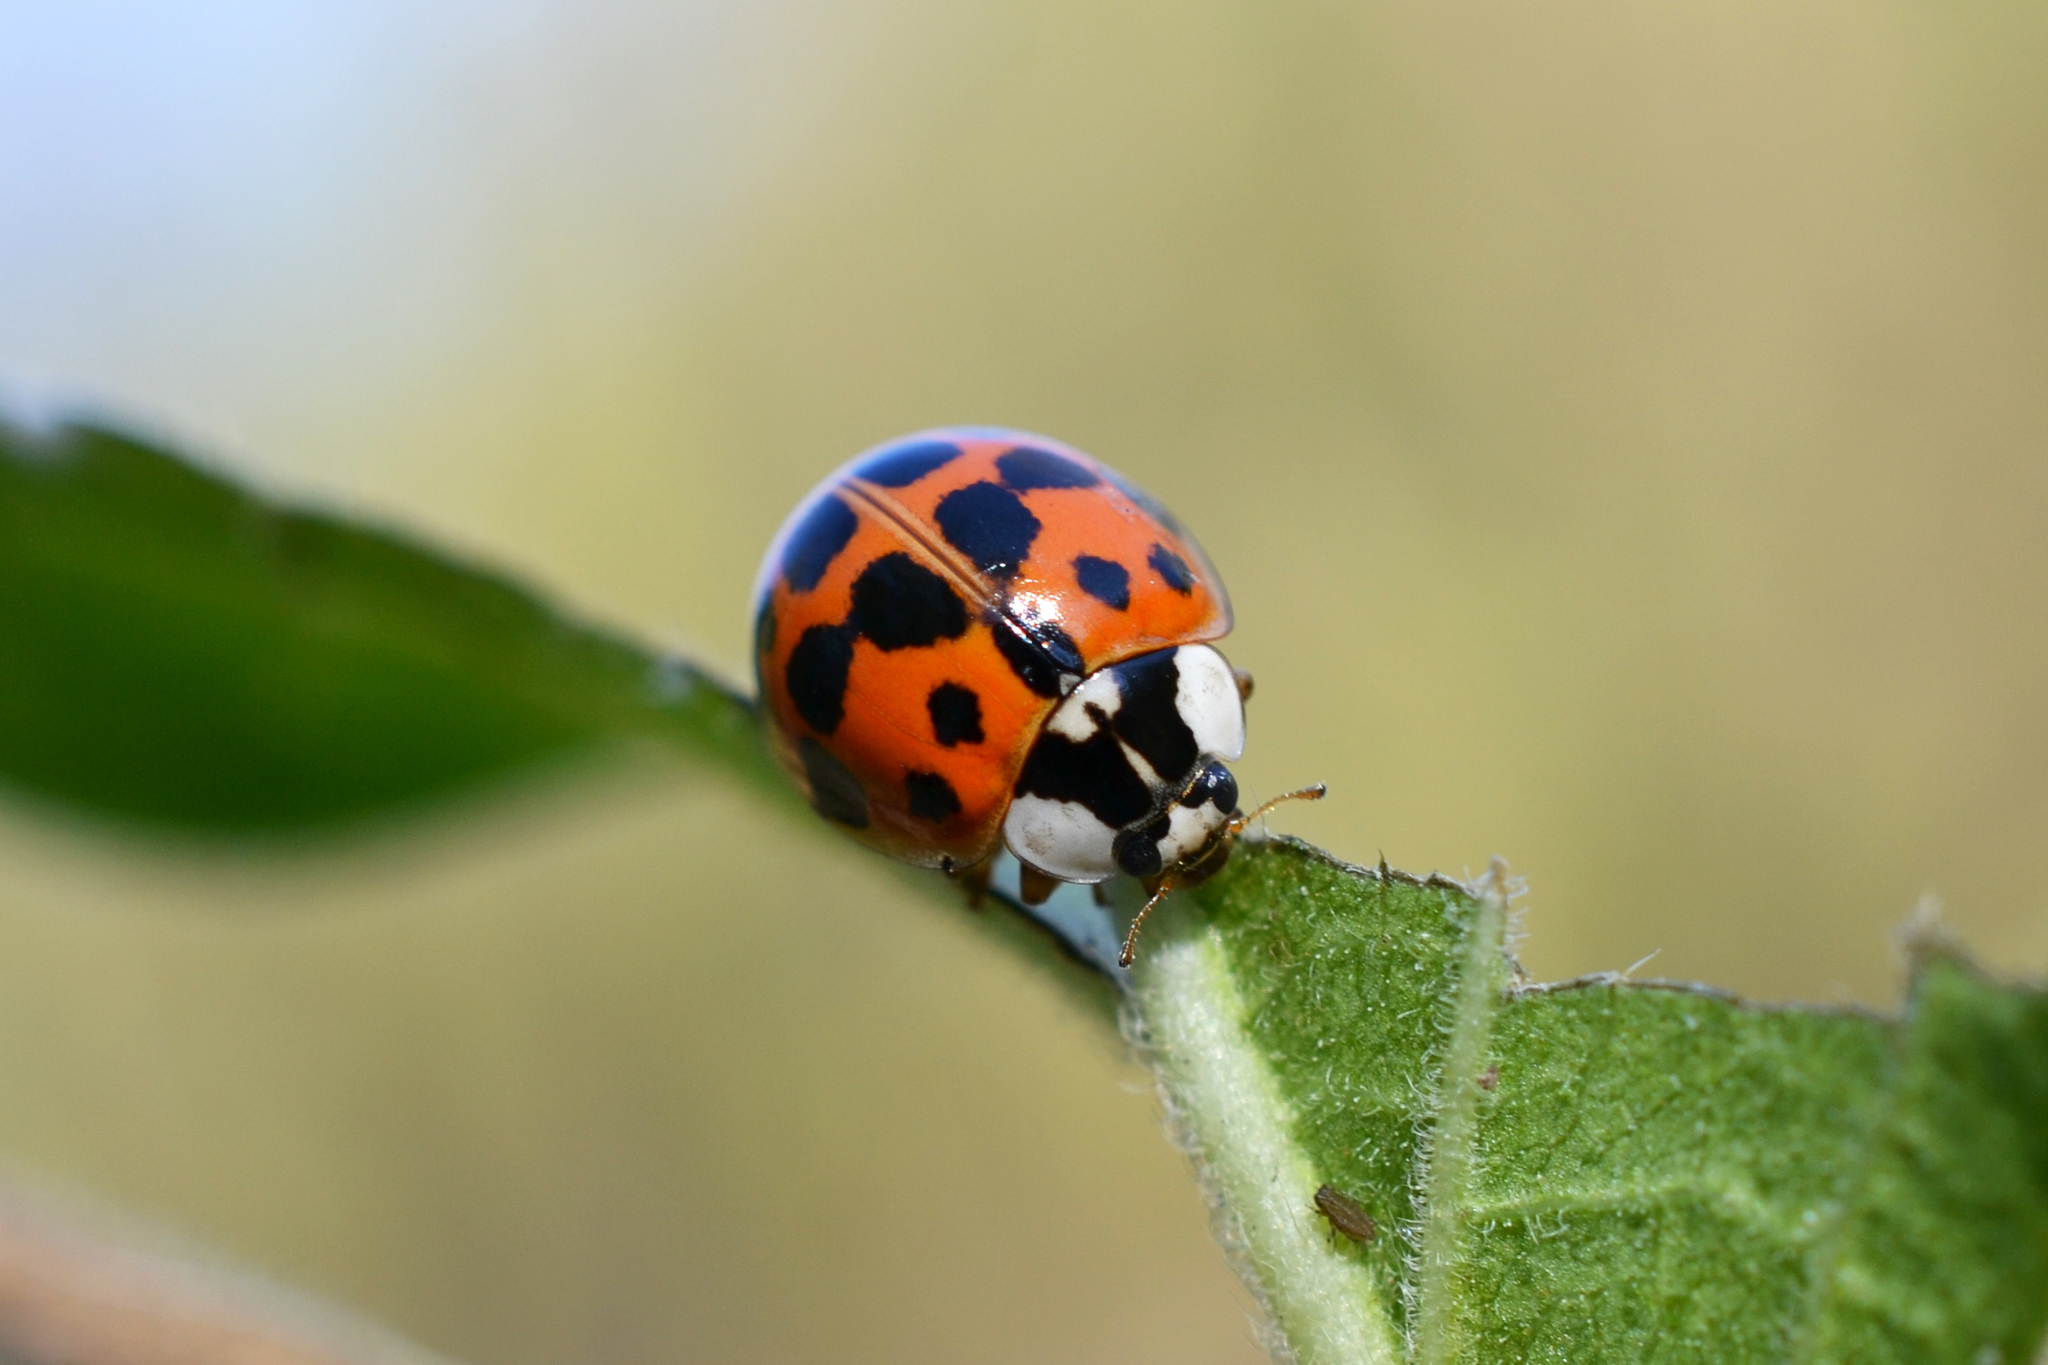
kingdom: Animalia
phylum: Arthropoda
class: Insecta
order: Coleoptera
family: Coccinellidae
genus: Harmonia
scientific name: Harmonia axyridis
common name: Harlequin ladybird
